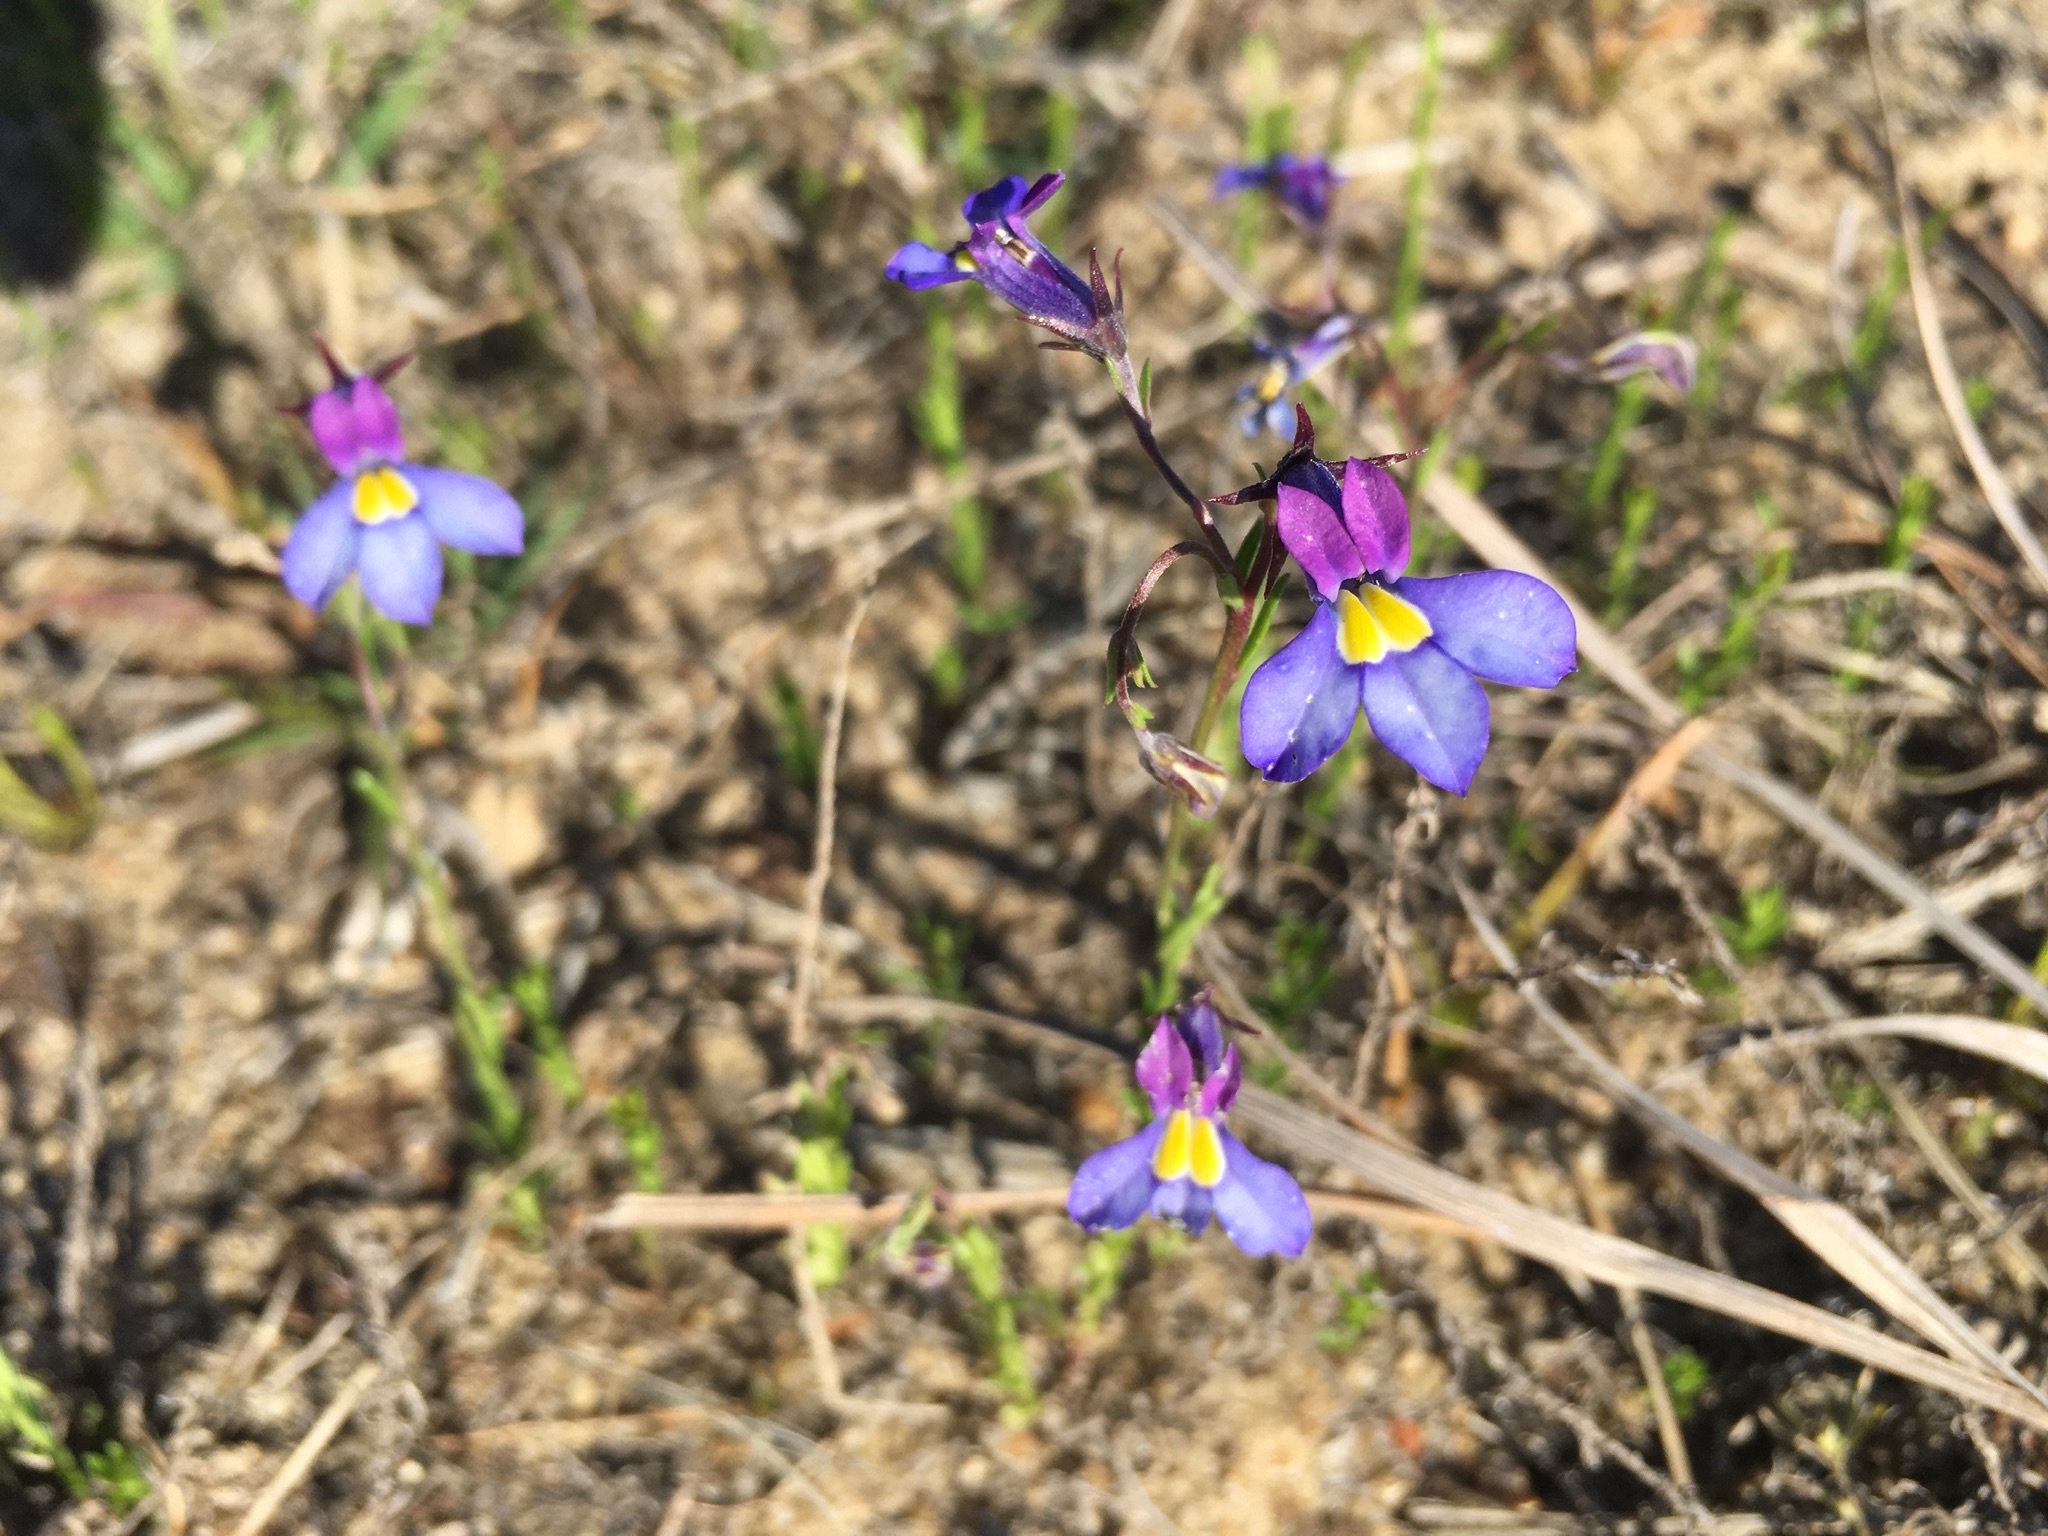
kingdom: Plantae
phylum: Tracheophyta
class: Magnoliopsida
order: Asterales
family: Campanulaceae
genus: Monopsis
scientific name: Monopsis decipiens
